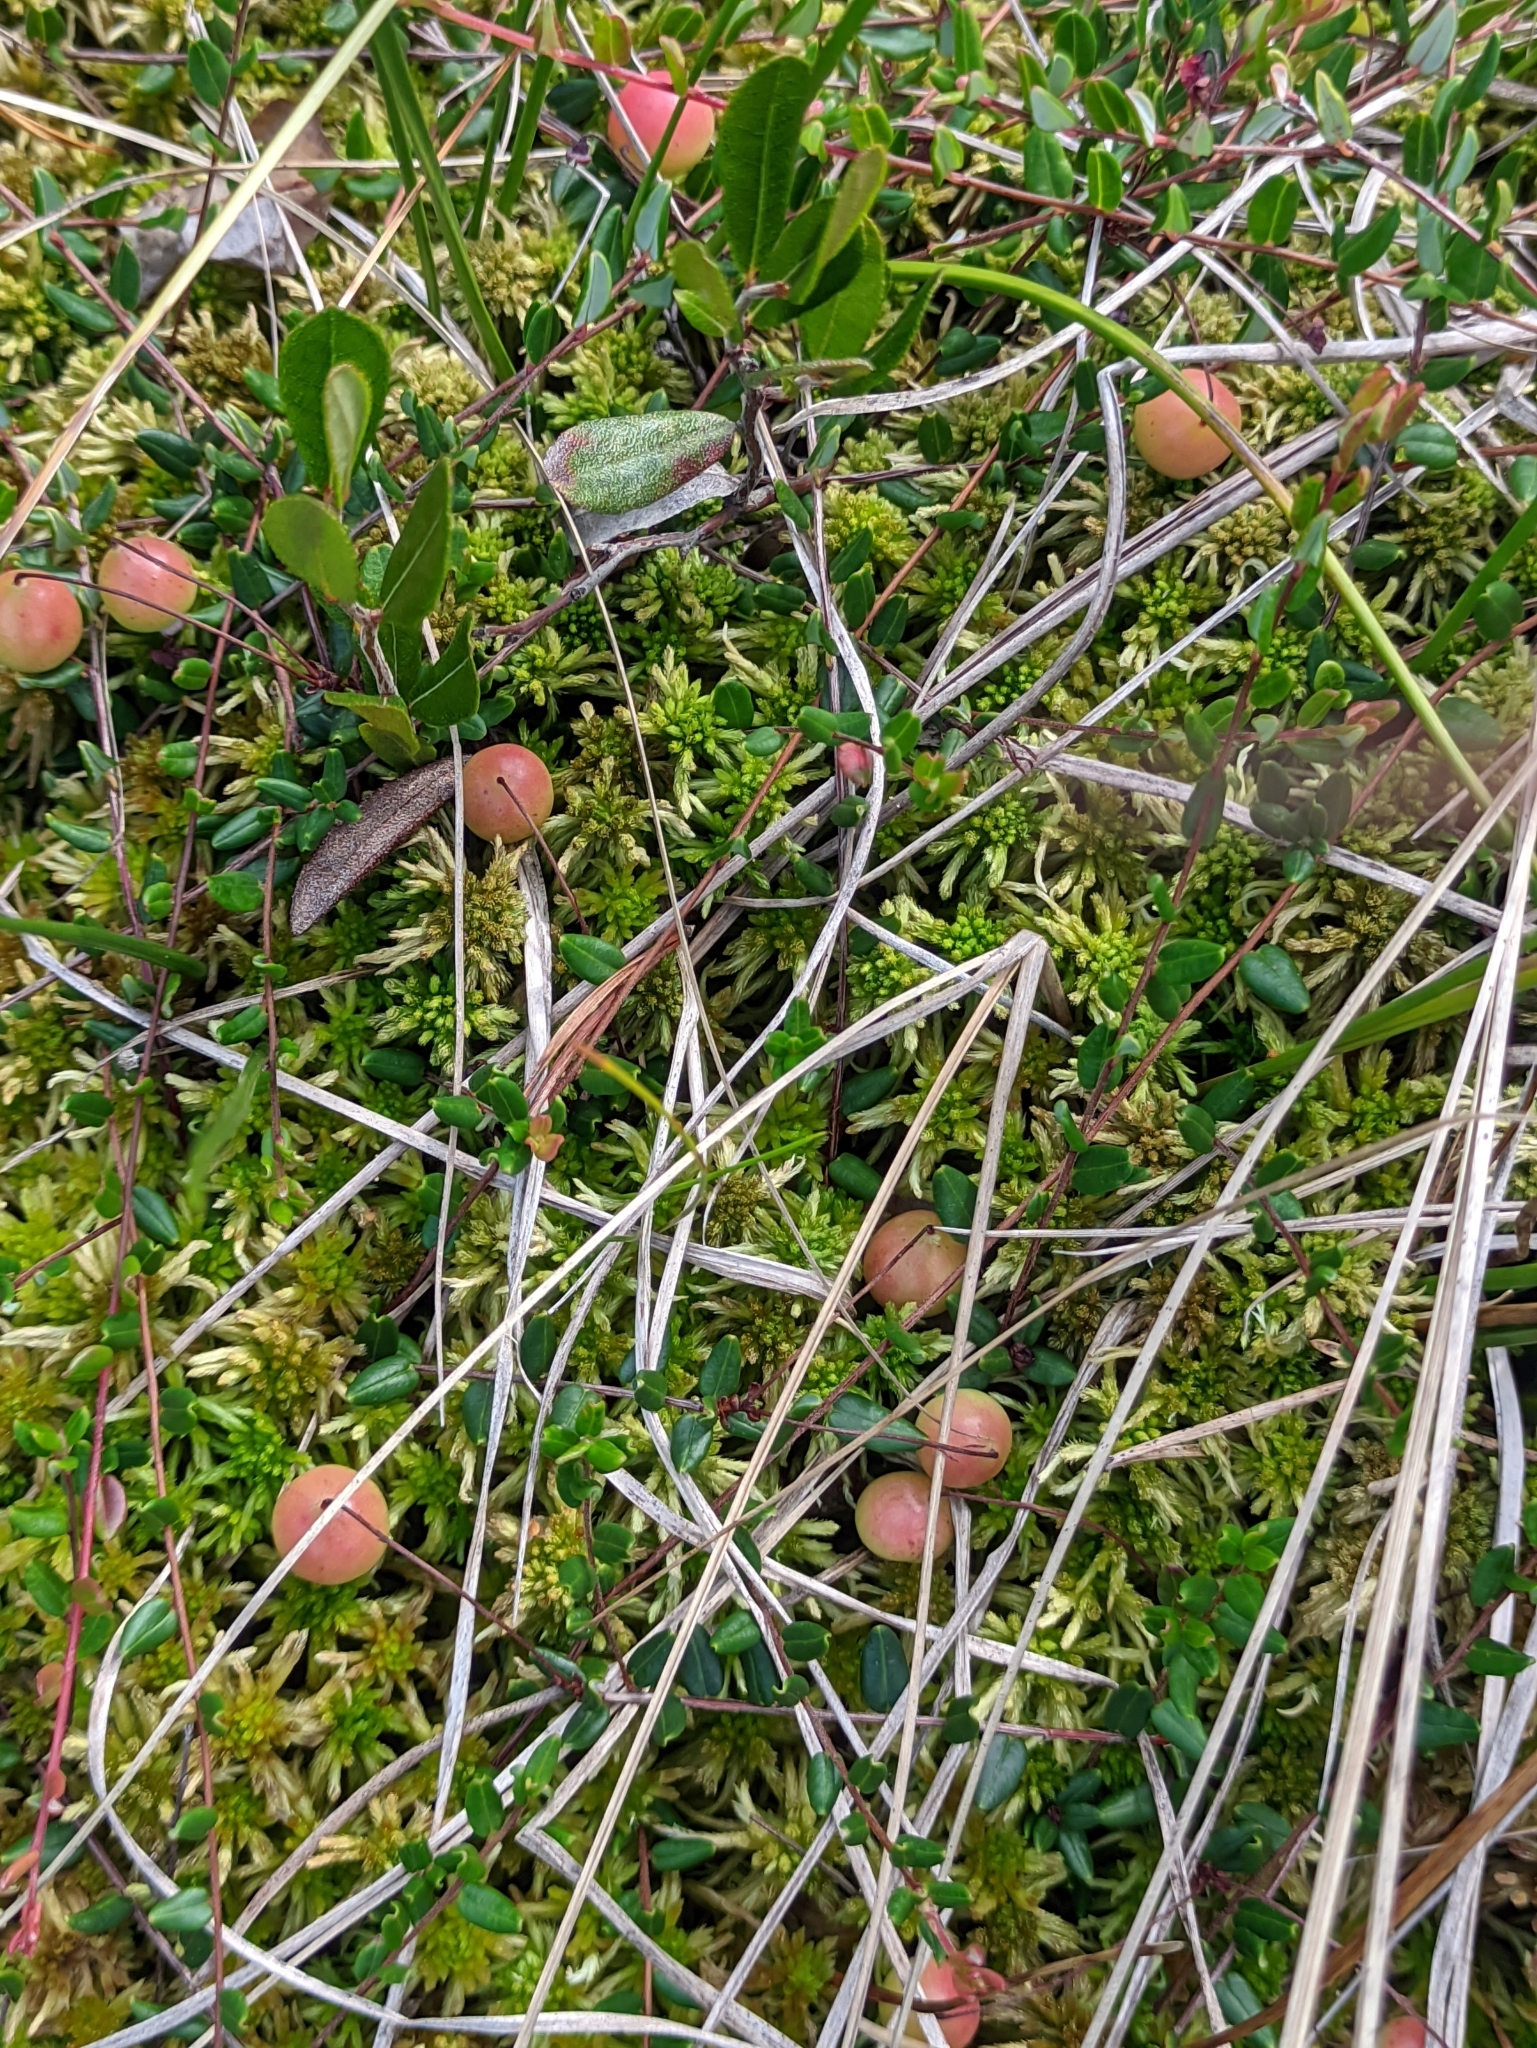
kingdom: Plantae
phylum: Tracheophyta
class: Magnoliopsida
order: Ericales
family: Ericaceae
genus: Vaccinium
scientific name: Vaccinium oxycoccos
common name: Cranberry
